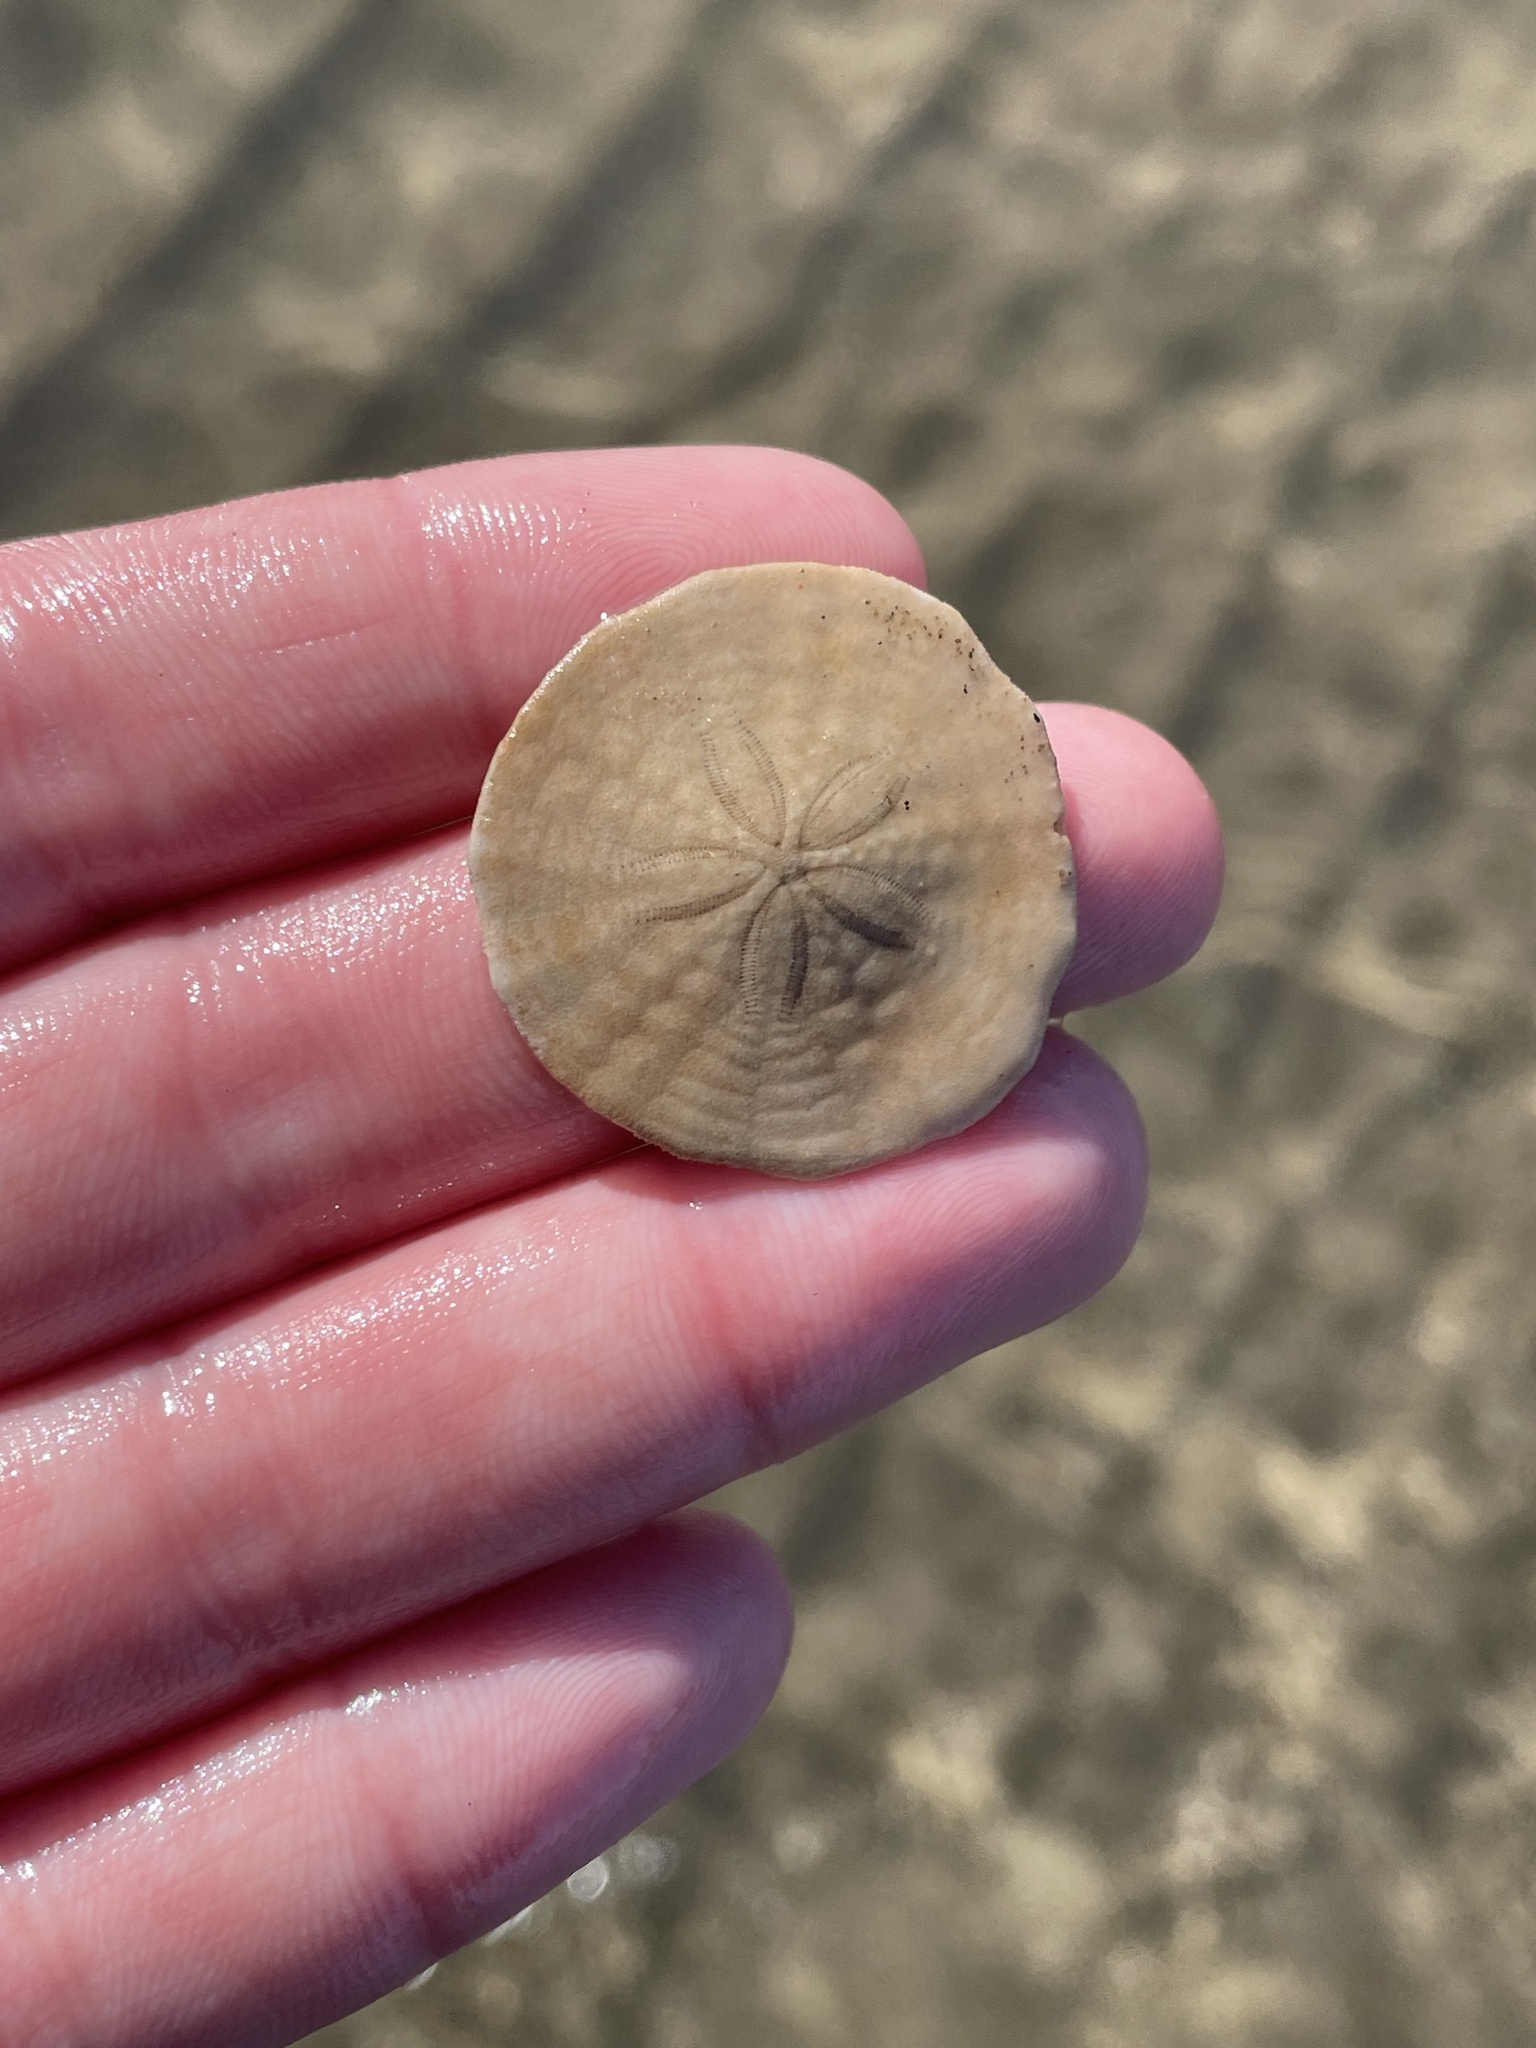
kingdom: Animalia
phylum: Echinodermata
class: Echinoidea
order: Echinolampadacea
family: Echinarachniidae
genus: Echinarachnius
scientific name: Echinarachnius parma
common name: Common sand dollar
